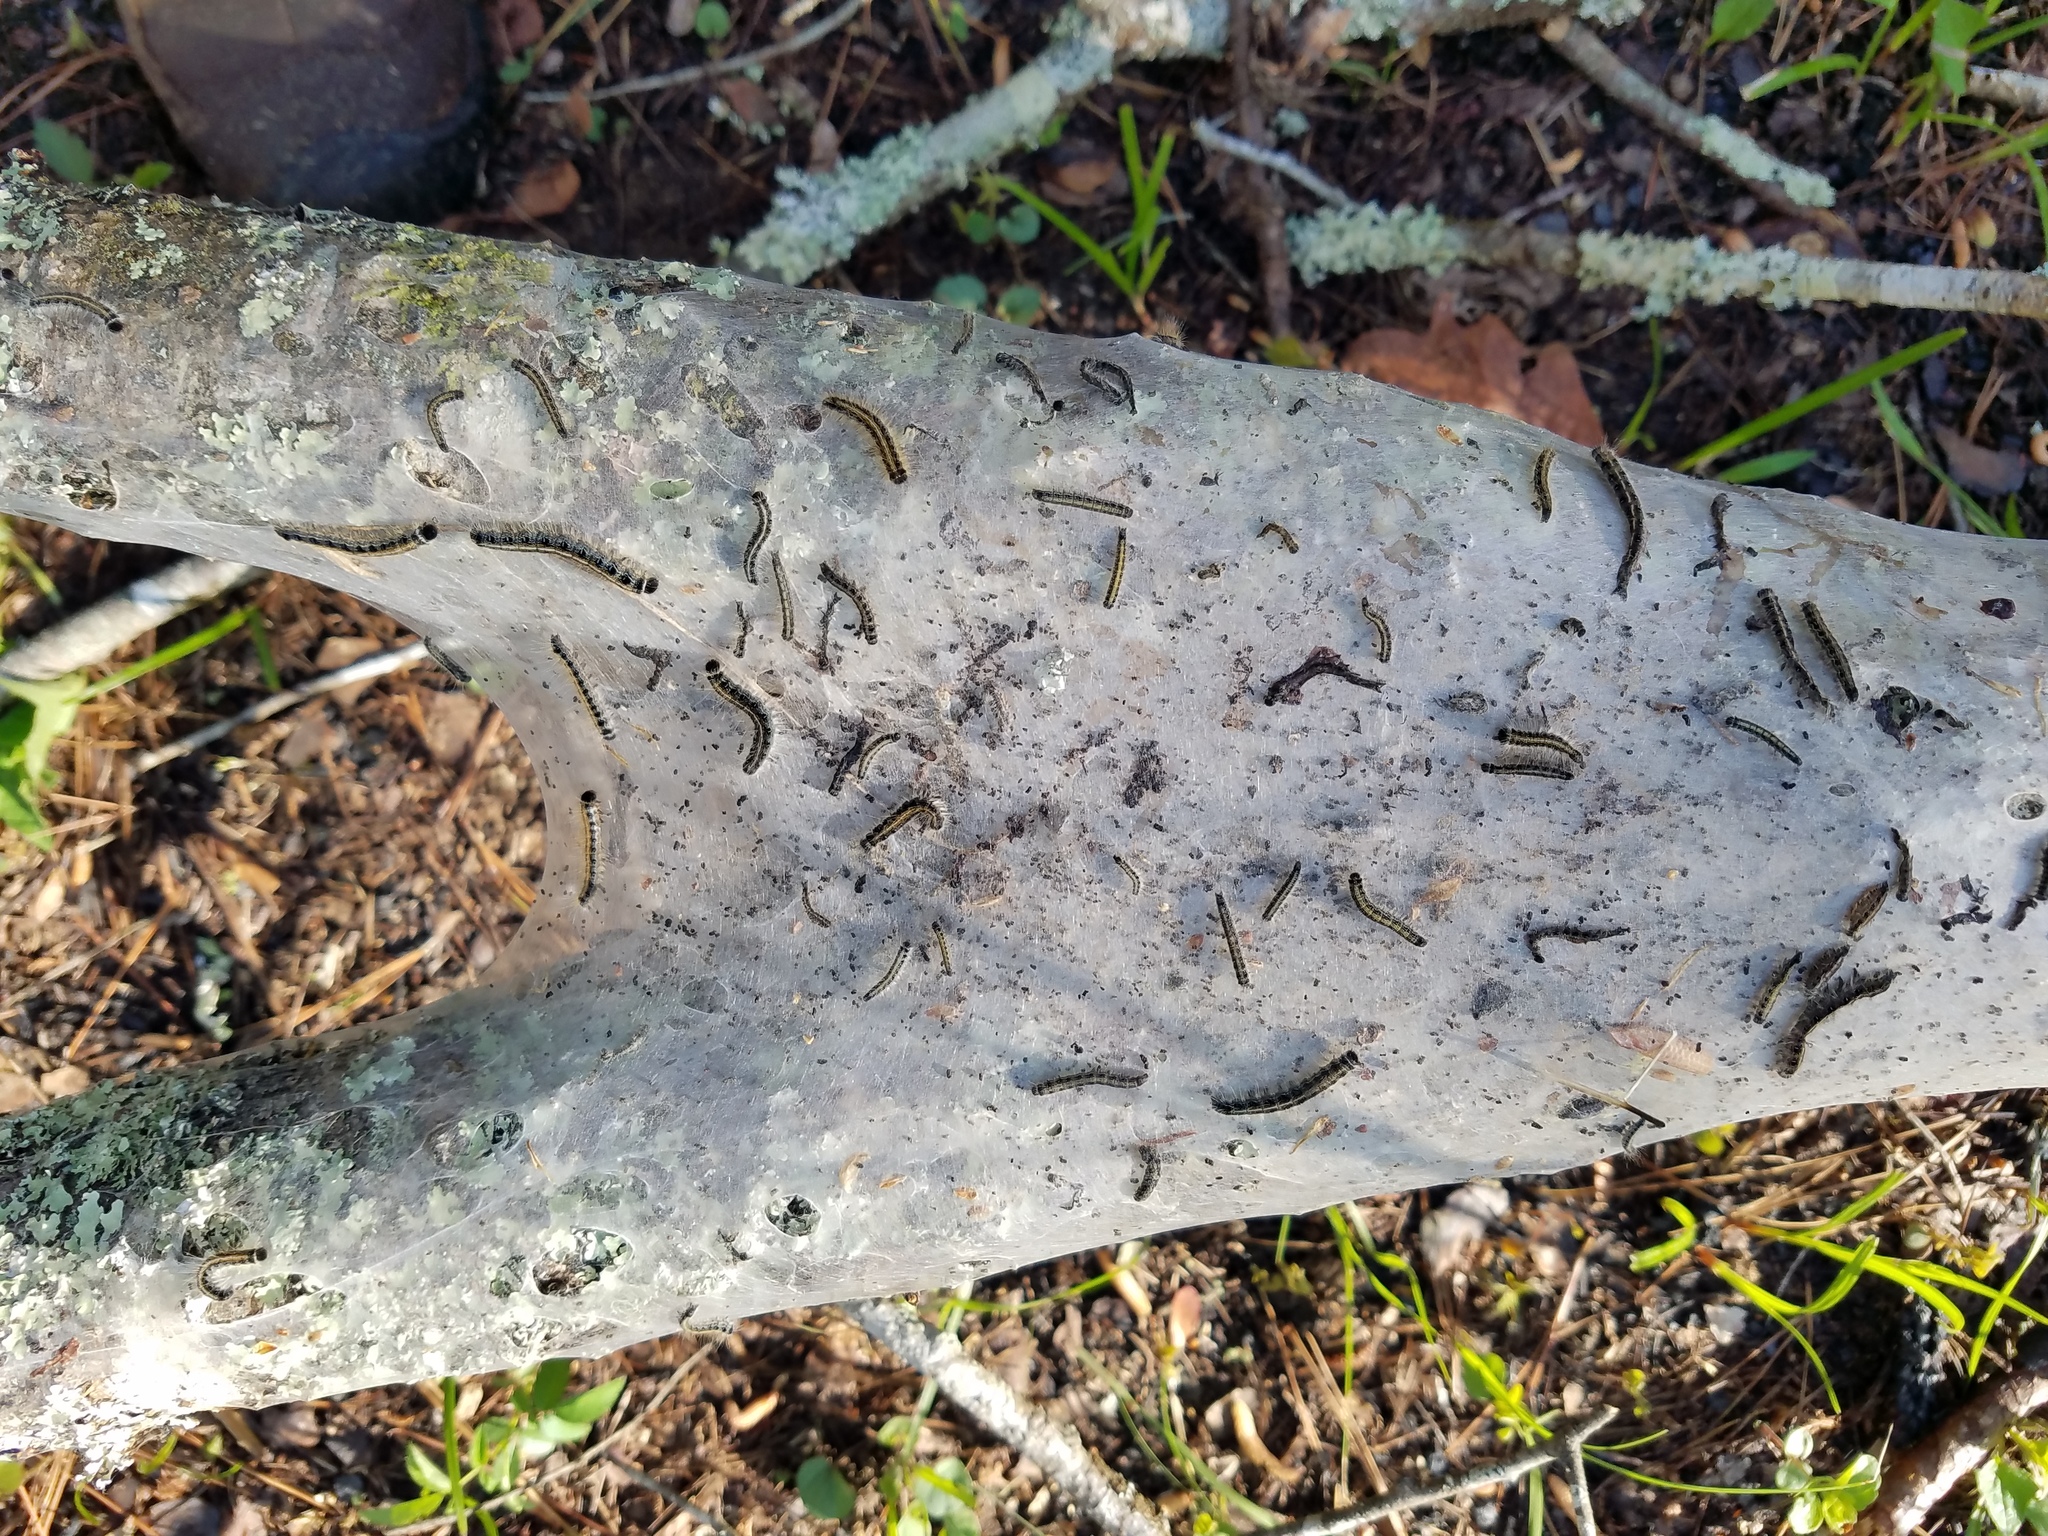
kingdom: Animalia
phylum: Arthropoda
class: Insecta
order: Lepidoptera
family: Lasiocampidae
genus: Malacosoma
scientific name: Malacosoma americana
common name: Eastern tent caterpillar moth
